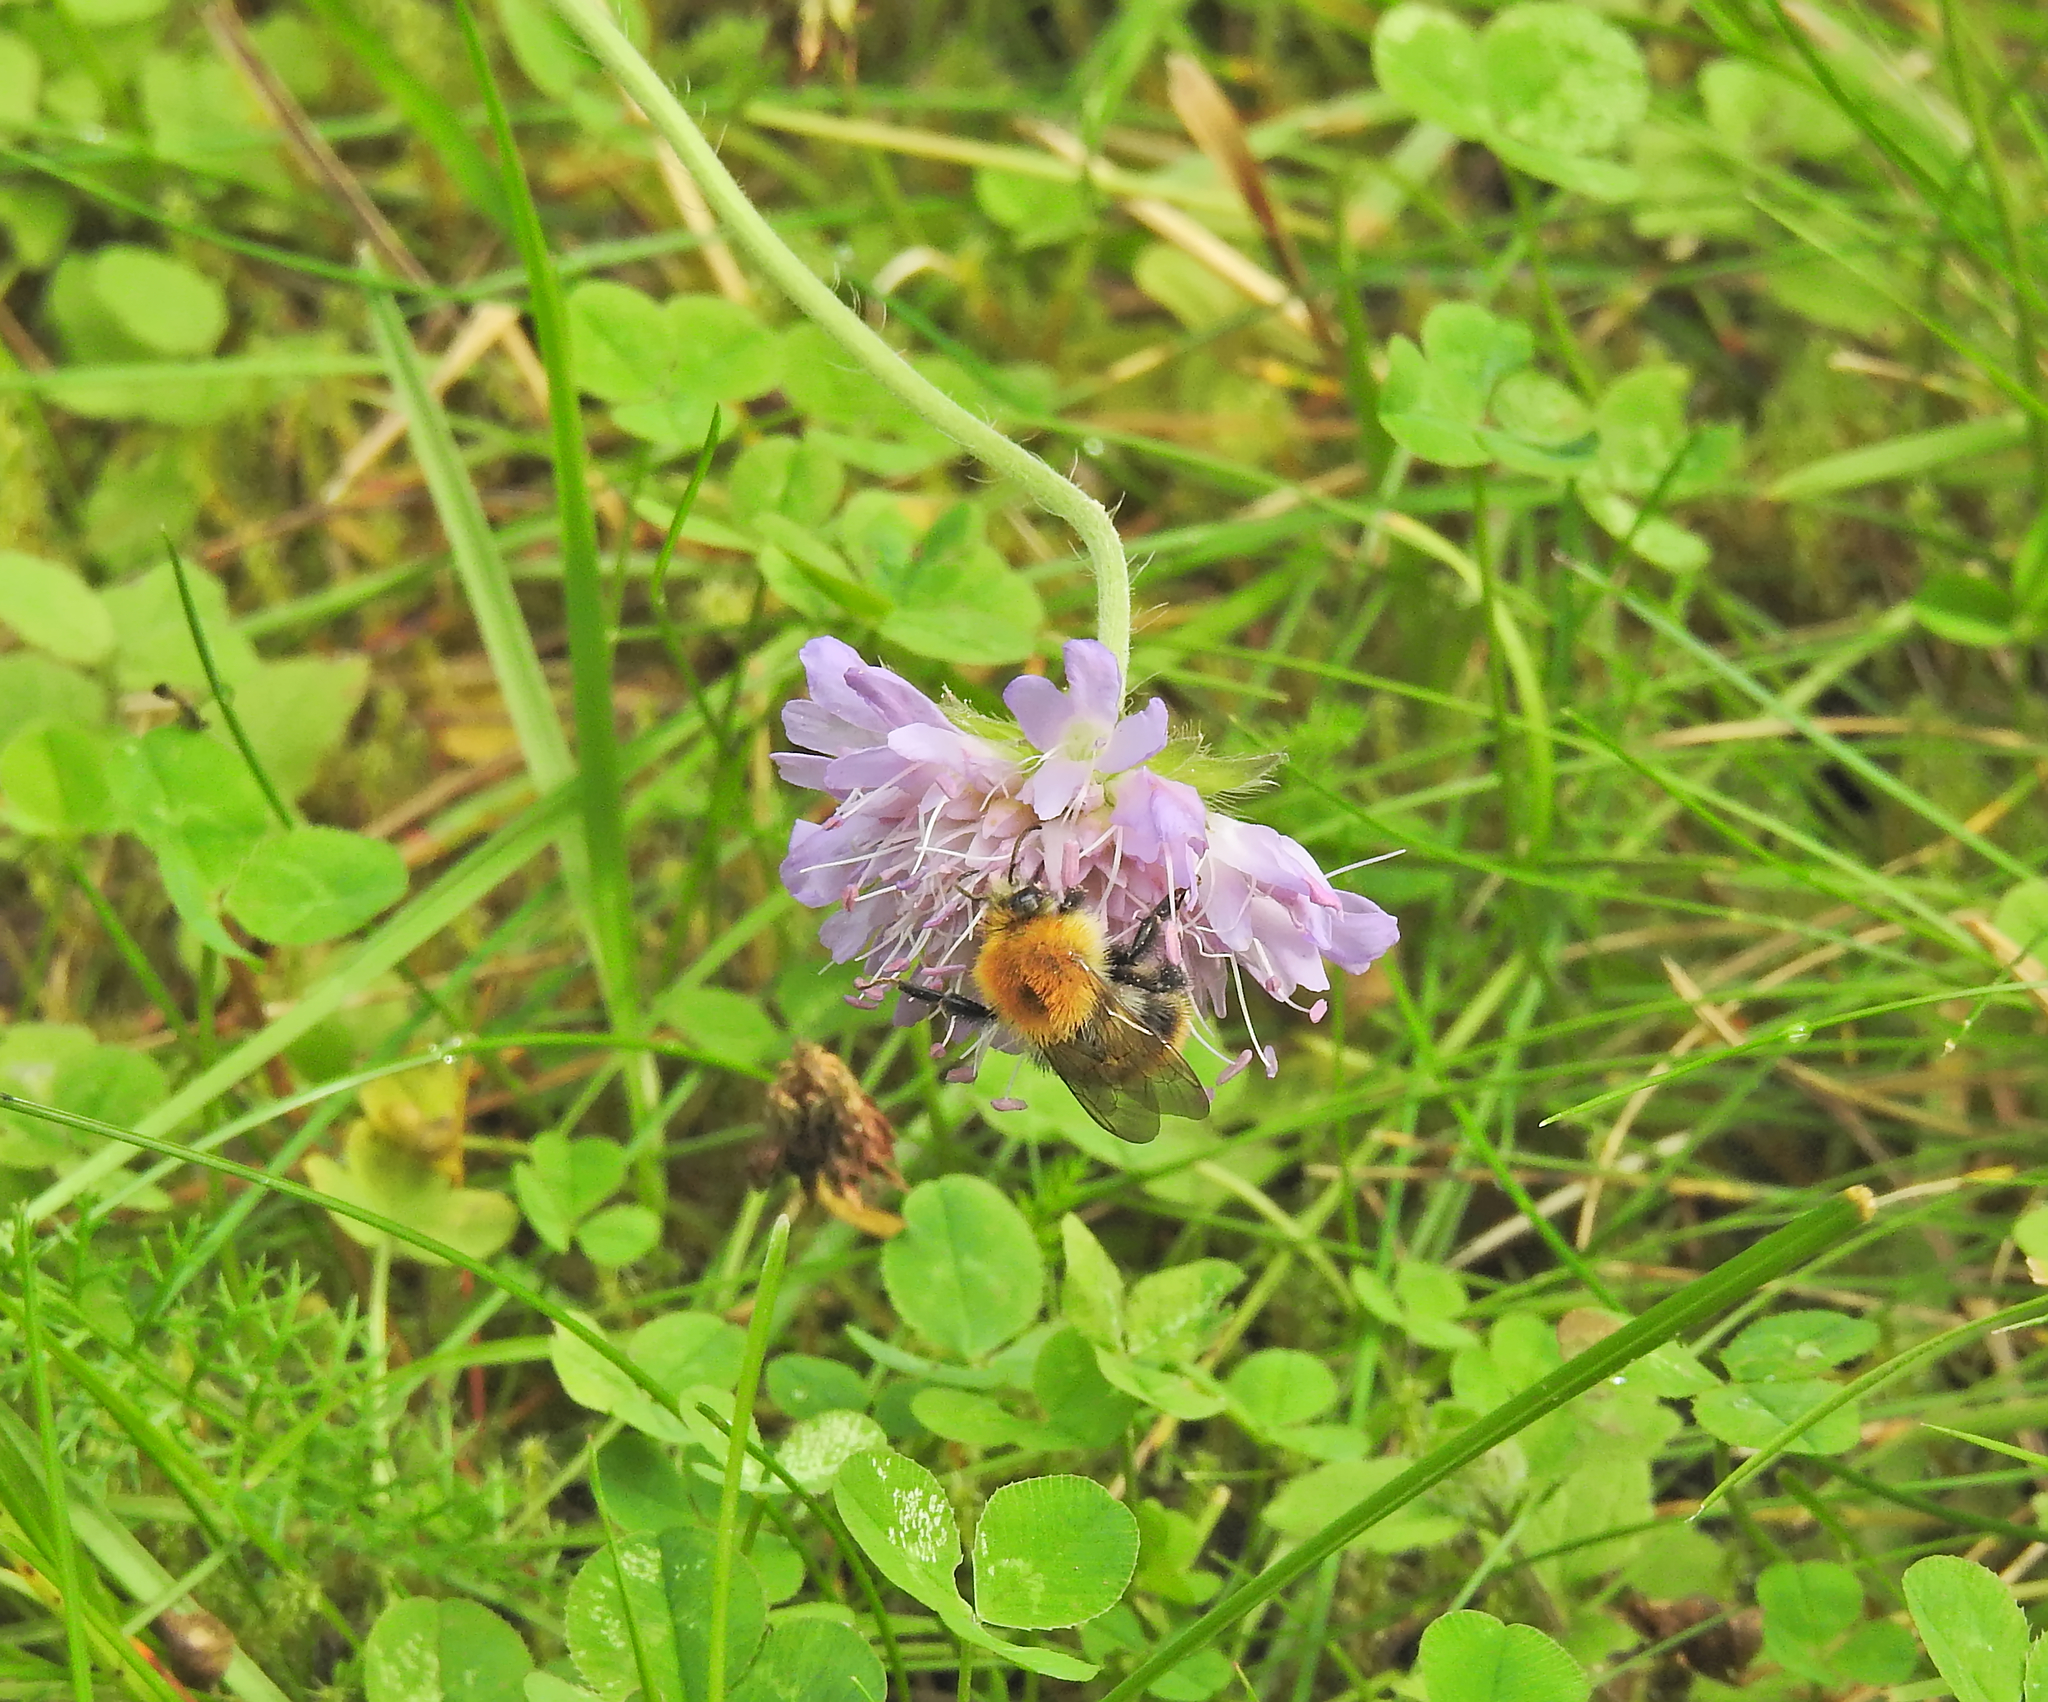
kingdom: Animalia
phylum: Arthropoda
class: Insecta
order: Hymenoptera
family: Apidae
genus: Bombus
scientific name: Bombus pascuorum
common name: Common carder bee
